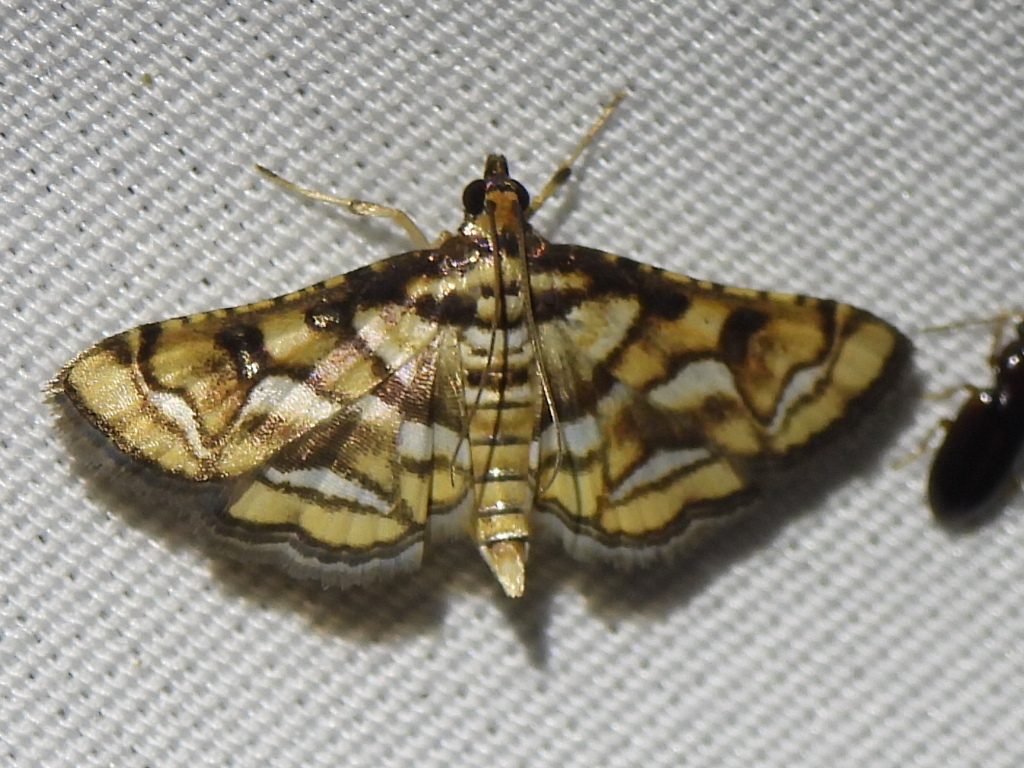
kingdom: Animalia
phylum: Arthropoda
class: Insecta
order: Lepidoptera
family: Crambidae
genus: Hileithia
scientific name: Hileithia magualis
